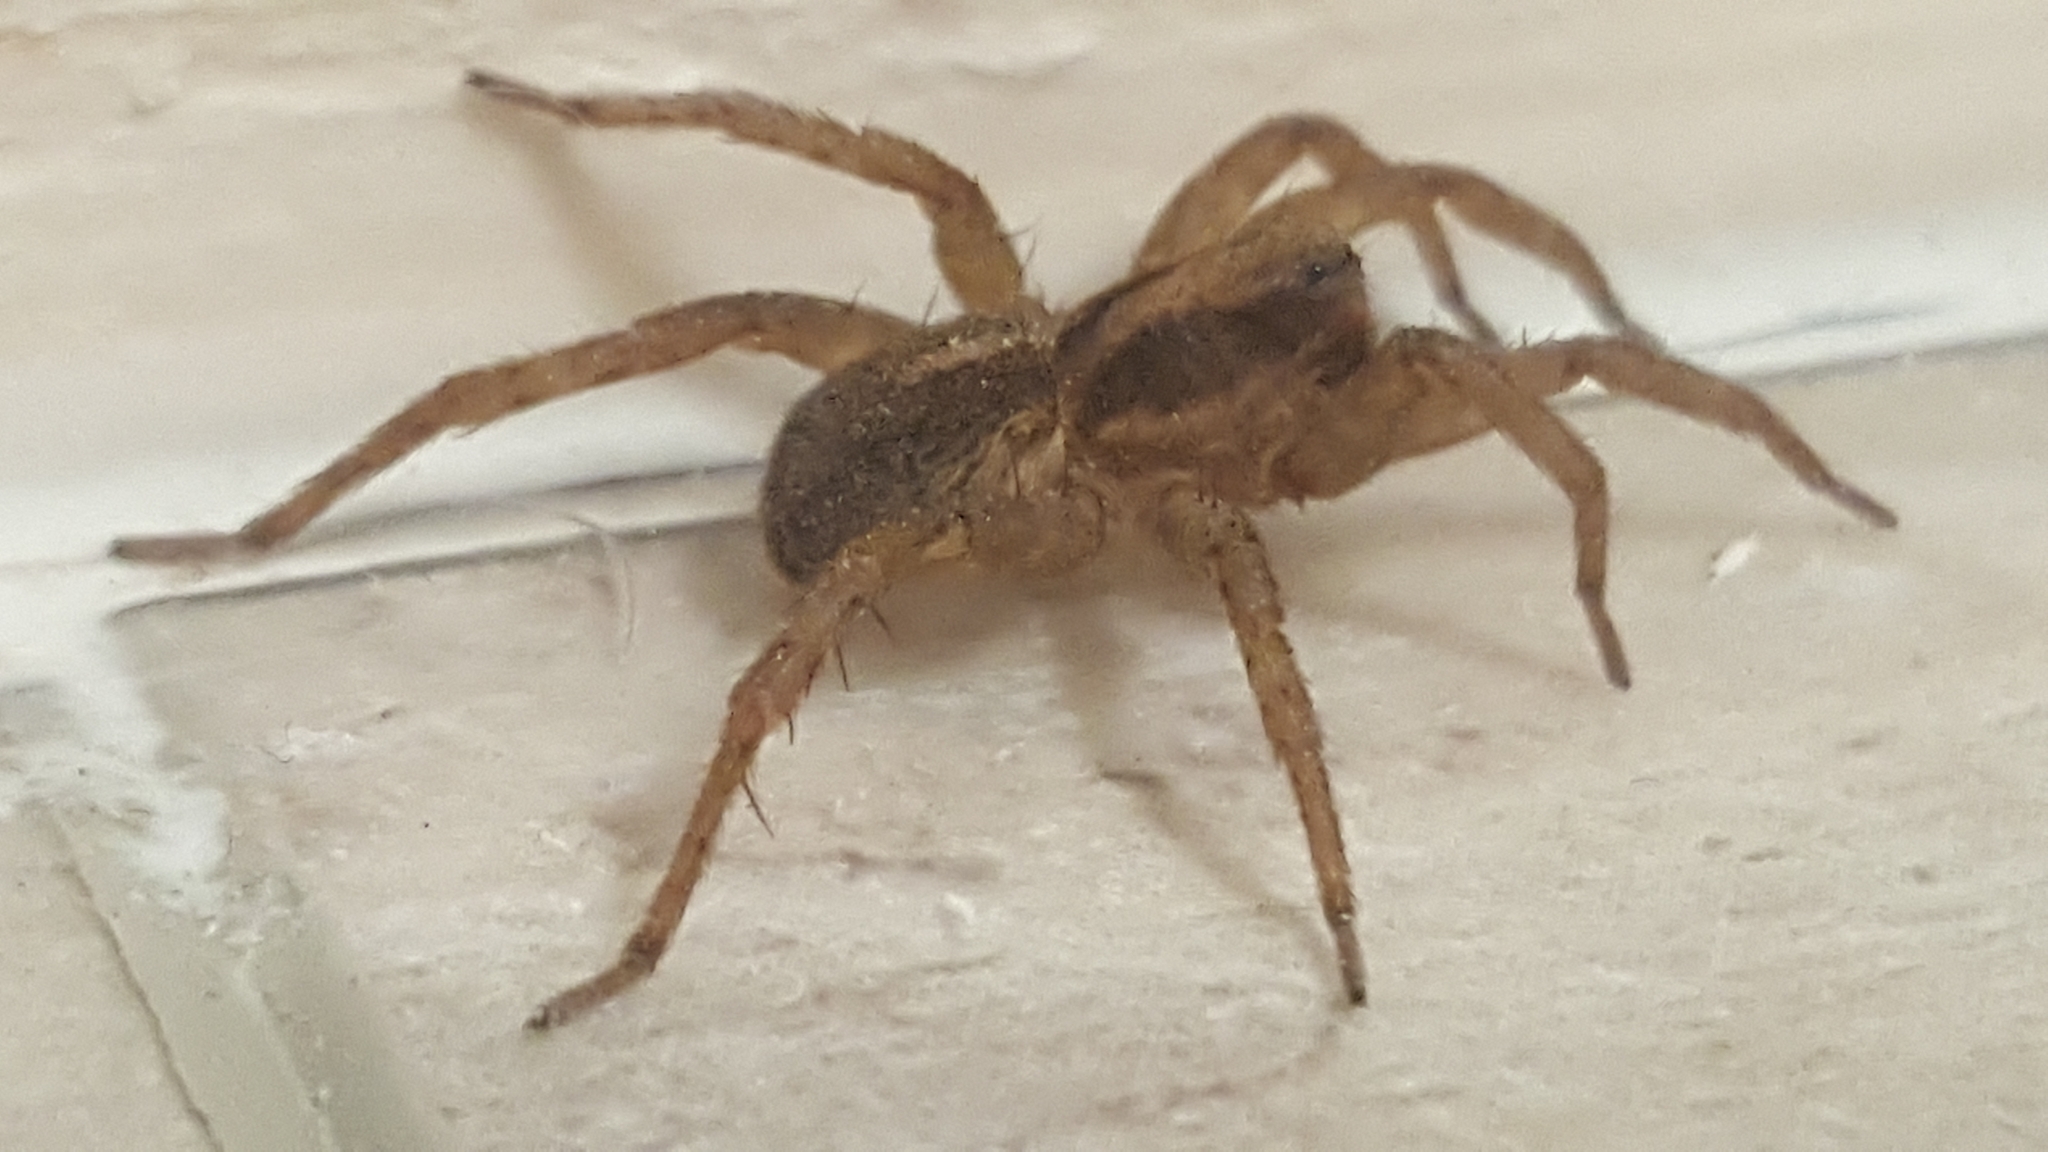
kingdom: Animalia
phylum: Arthropoda
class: Arachnida
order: Araneae
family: Lycosidae
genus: Trochosa
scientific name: Trochosa ruricola
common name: Spider
